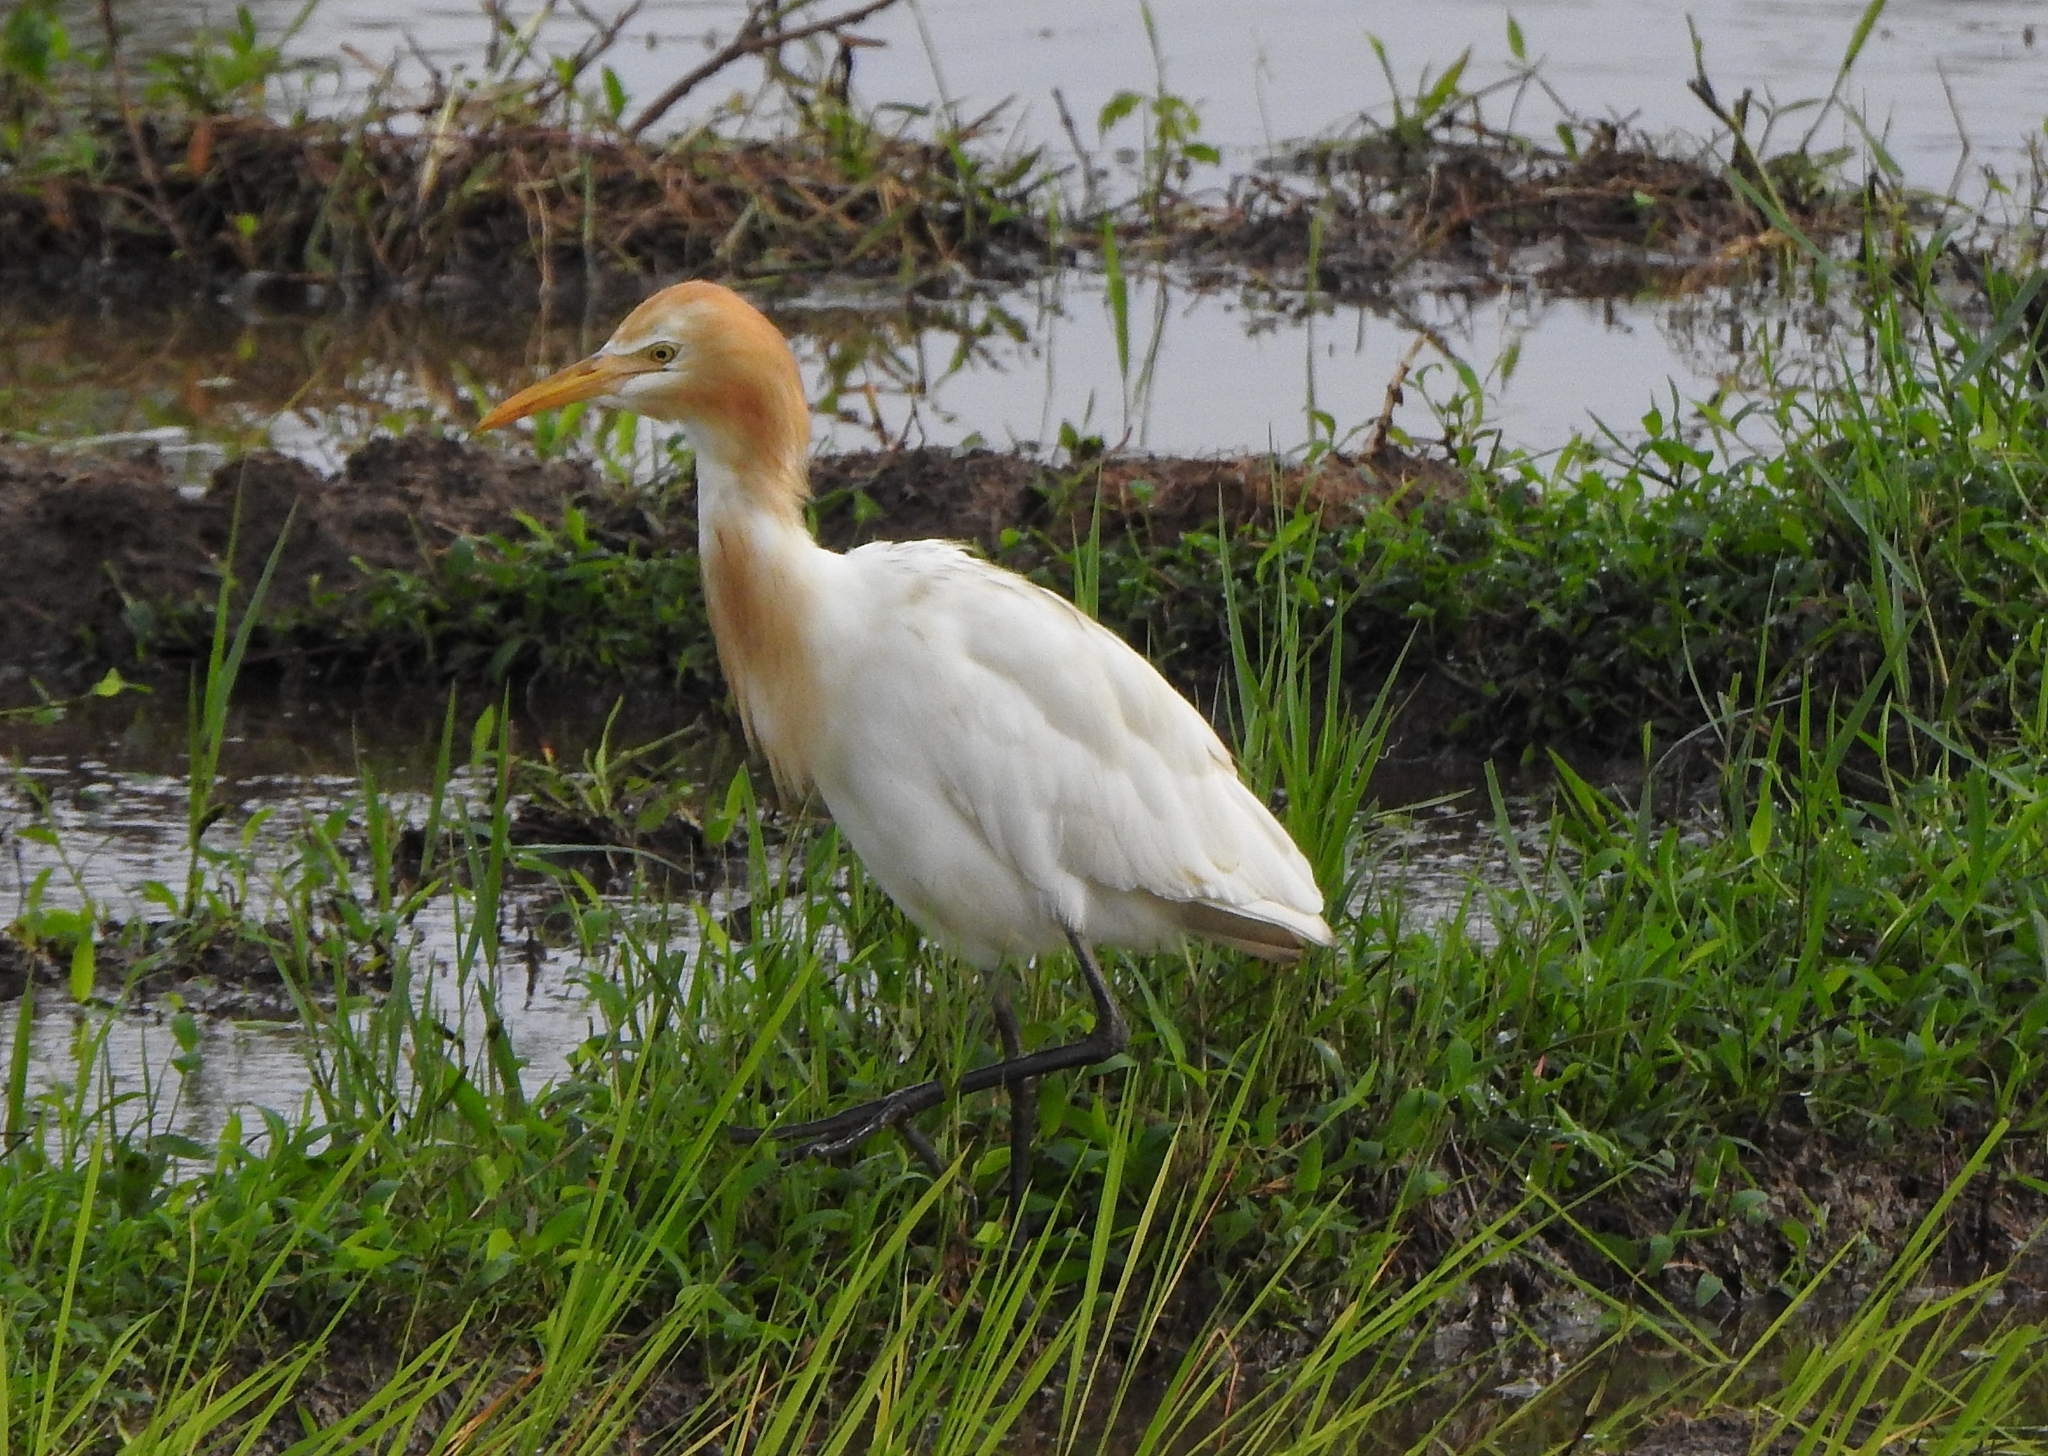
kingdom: Animalia
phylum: Chordata
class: Aves
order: Pelecaniformes
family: Ardeidae
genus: Bubulcus
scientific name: Bubulcus coromandus
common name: Eastern cattle egret
